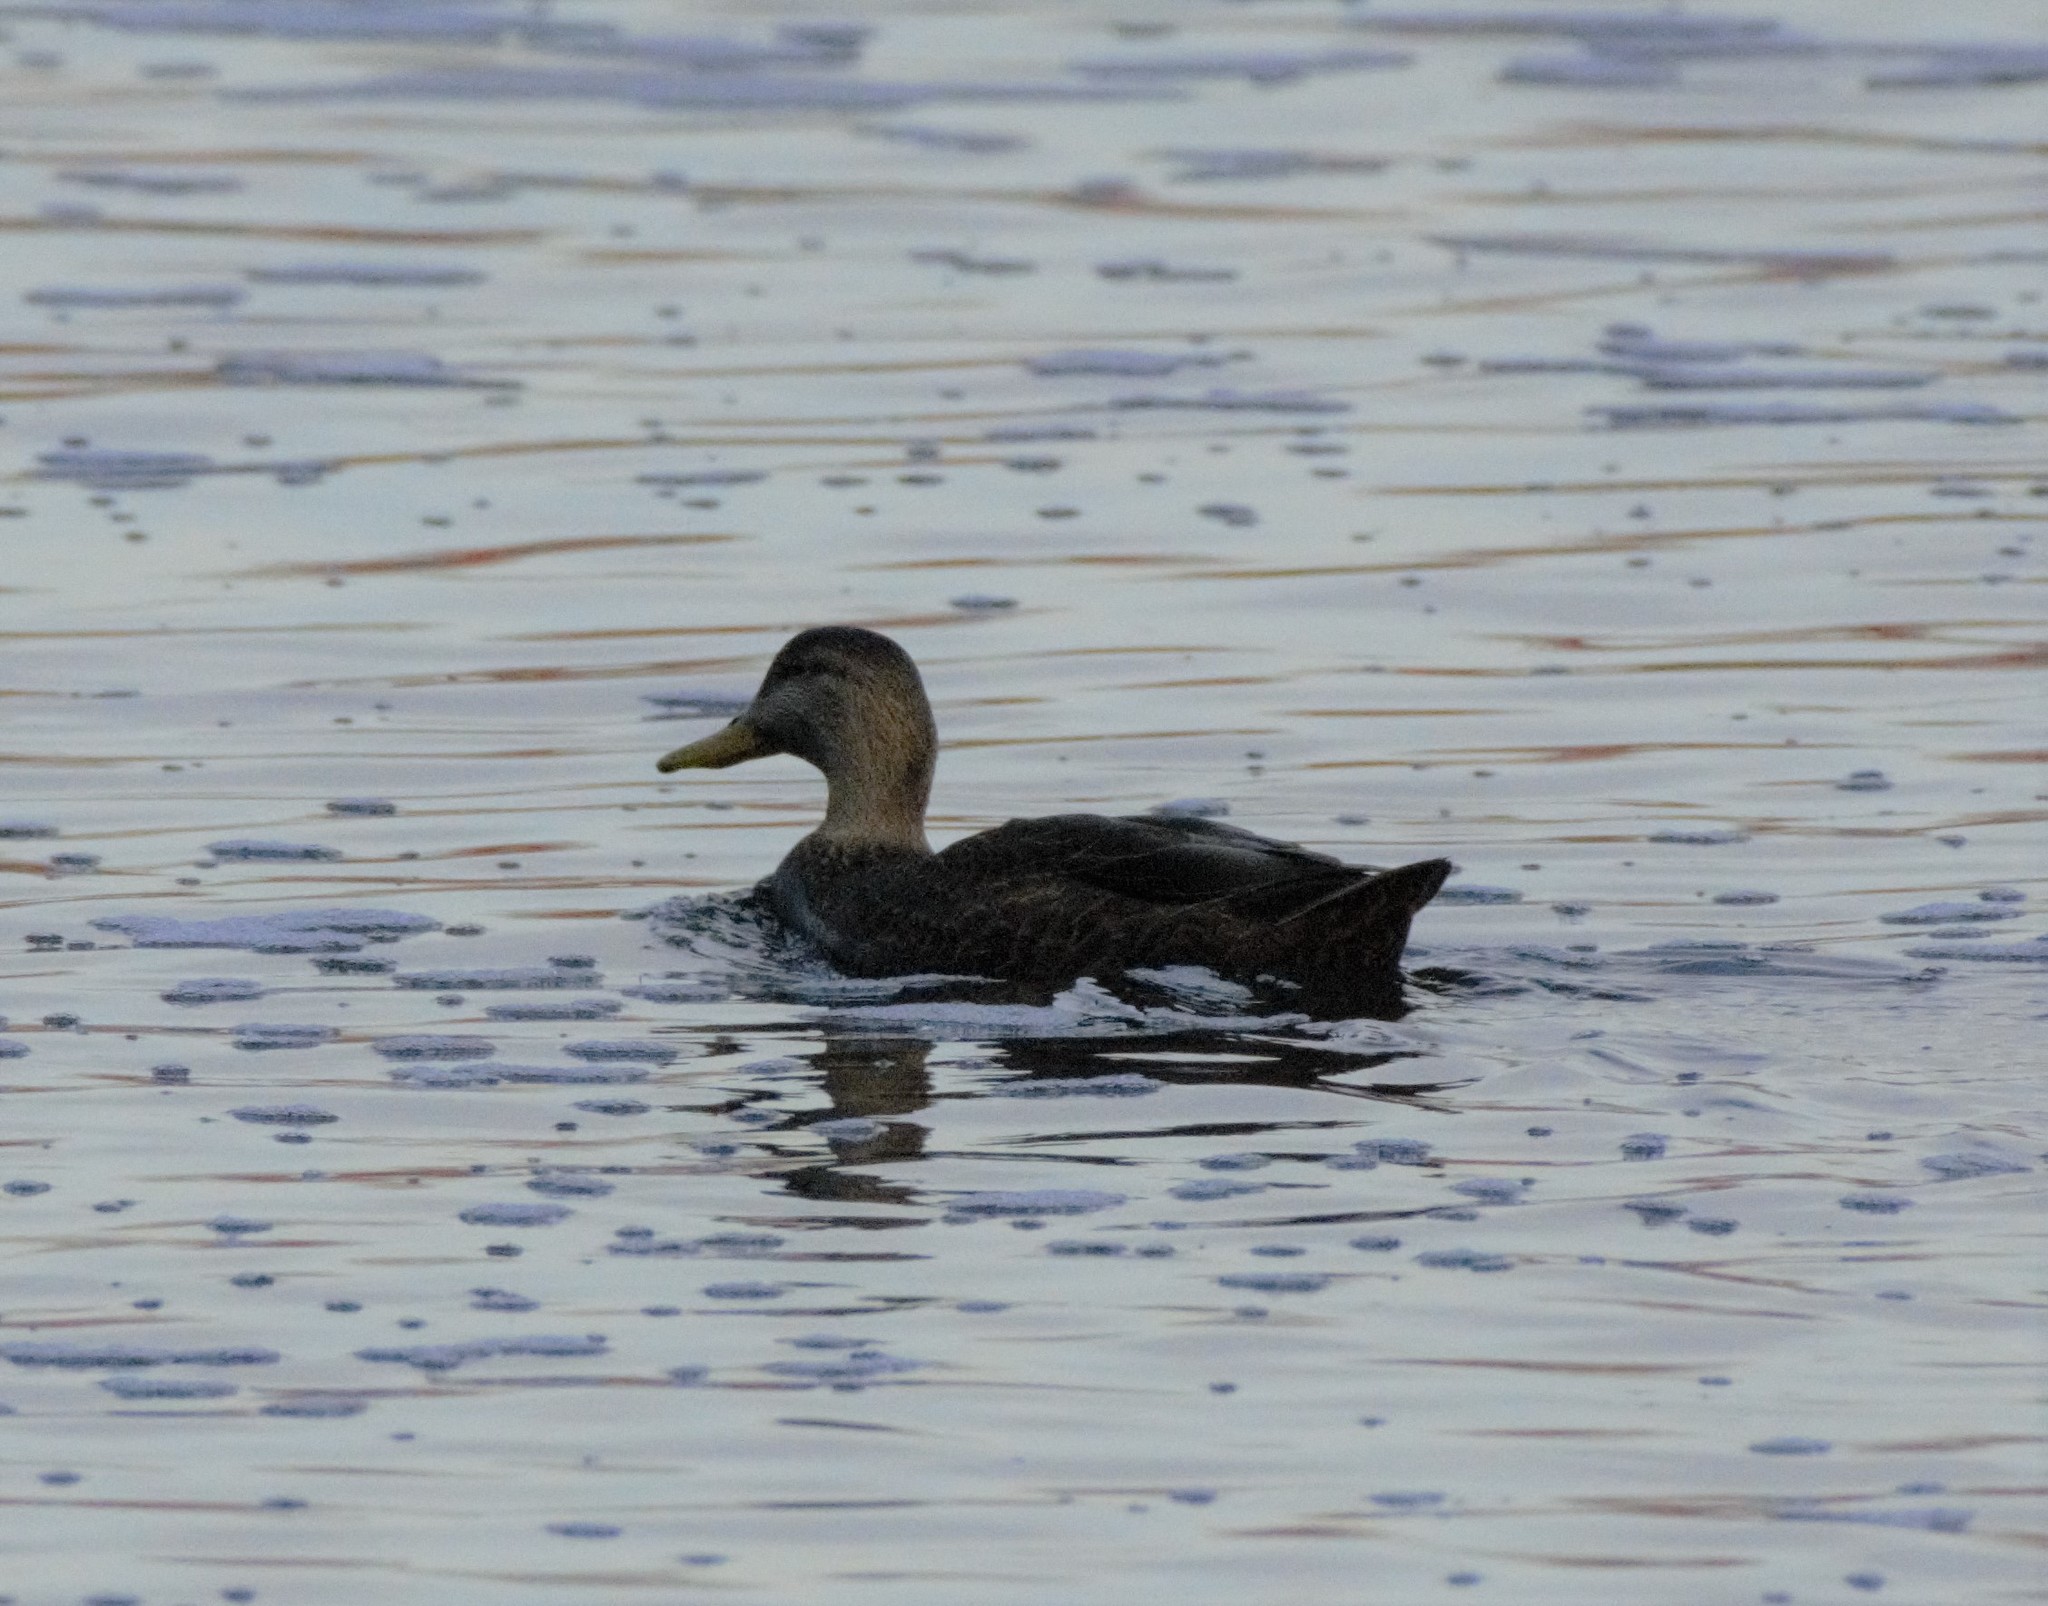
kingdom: Animalia
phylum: Chordata
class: Aves
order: Anseriformes
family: Anatidae
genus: Anas
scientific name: Anas rubripes
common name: American black duck
